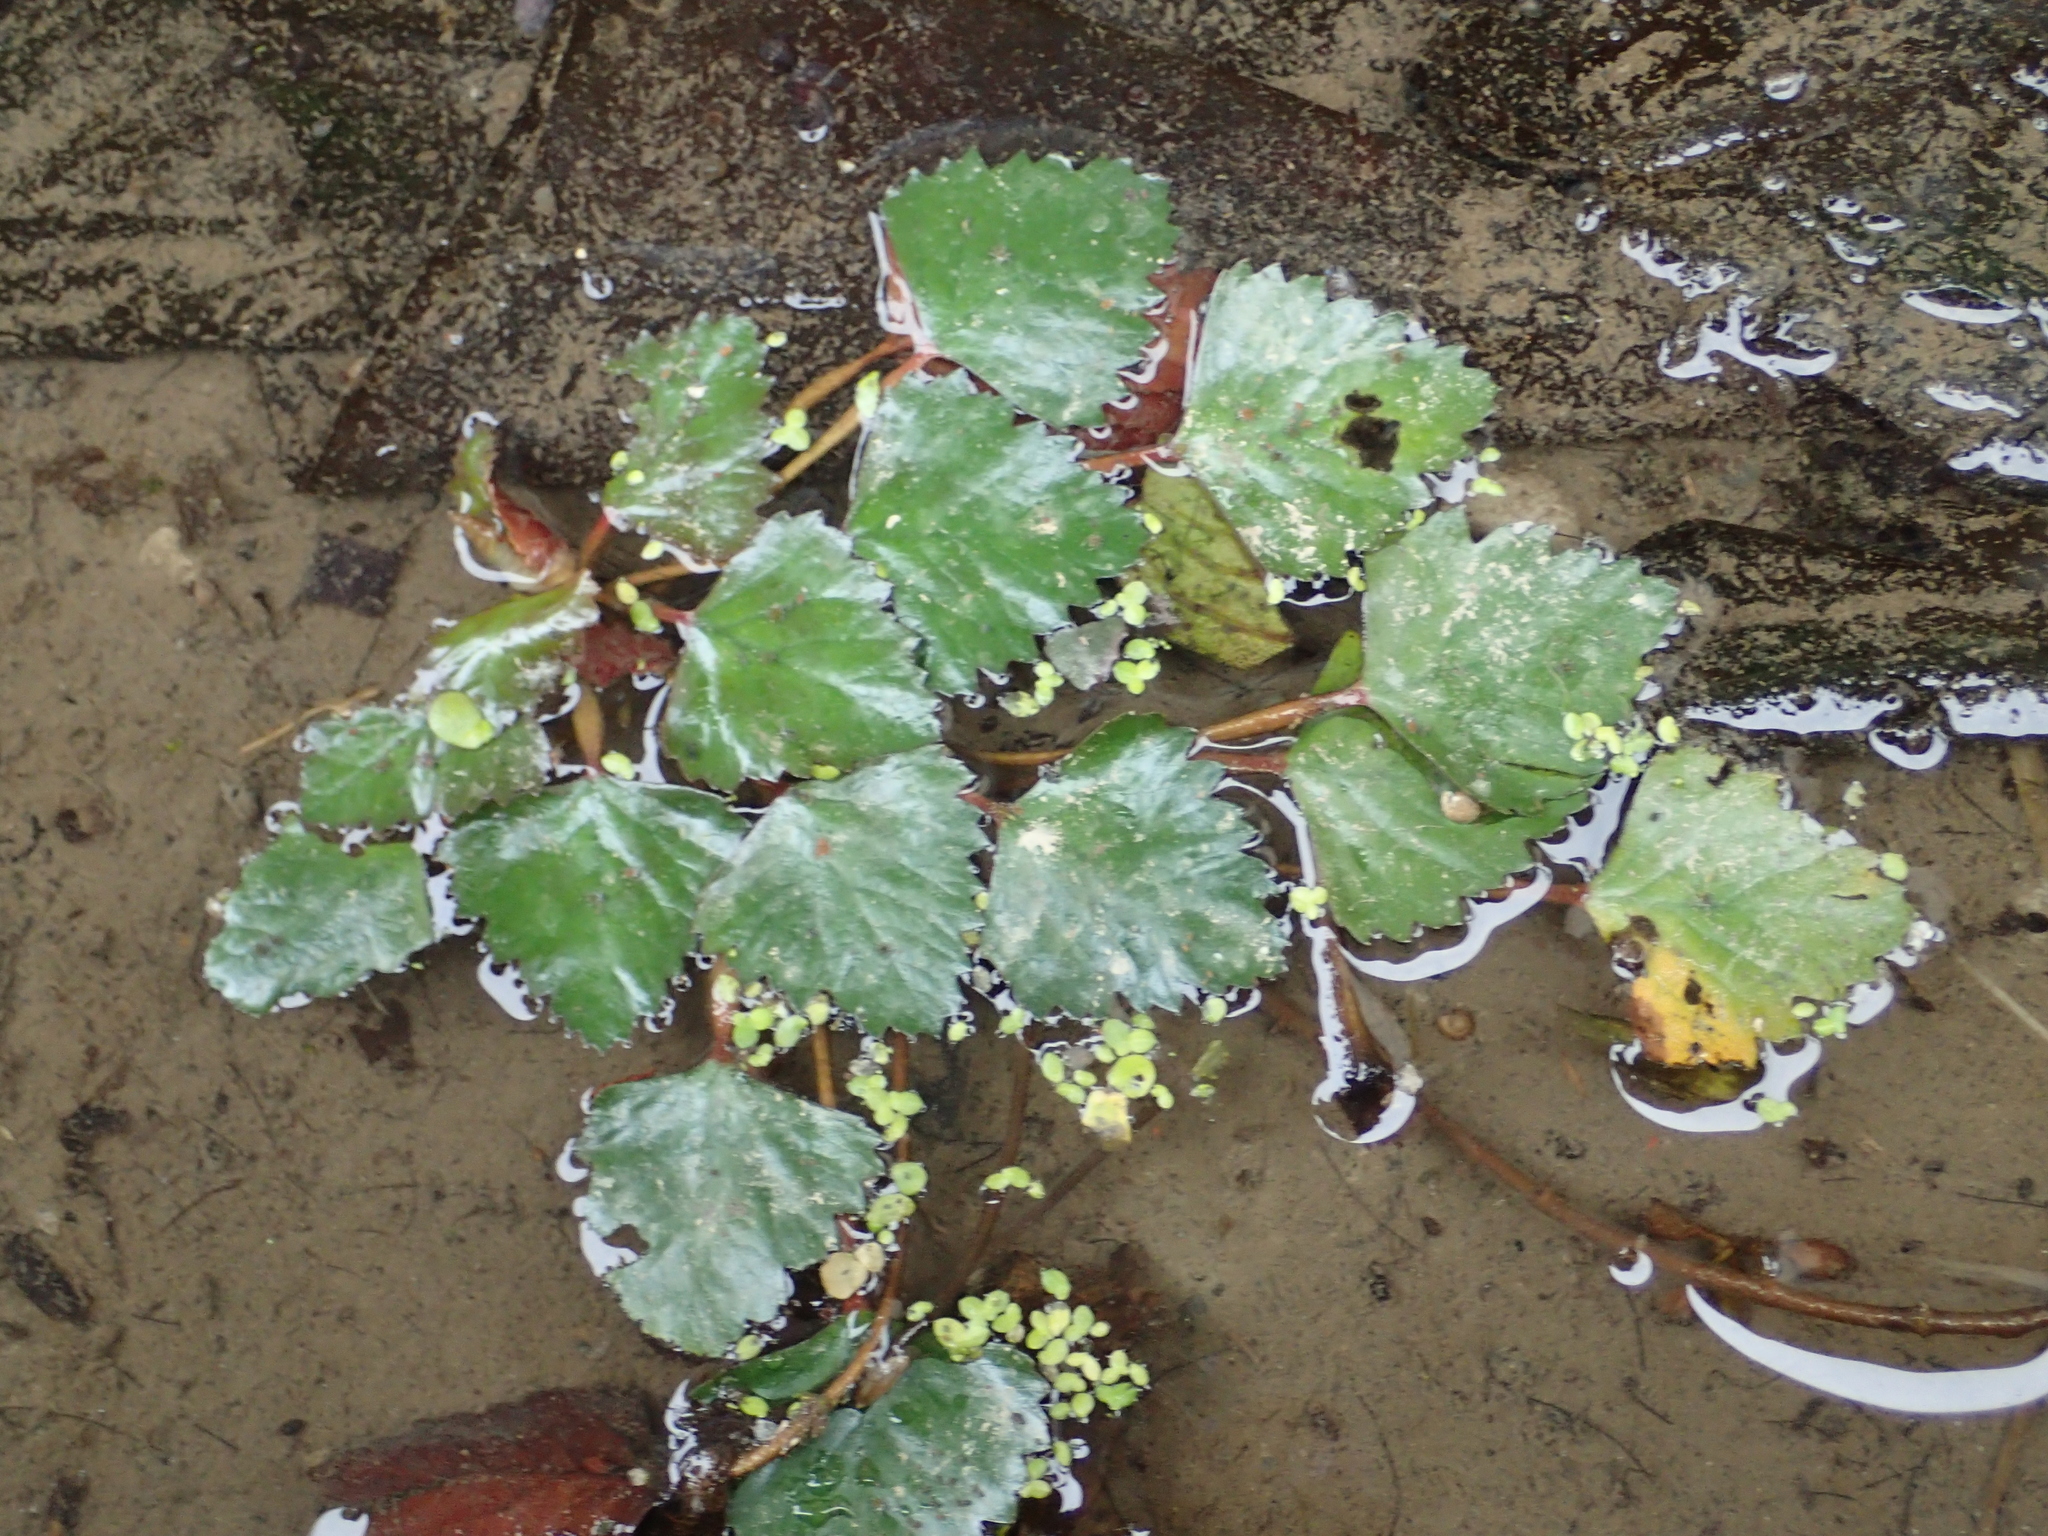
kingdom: Plantae
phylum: Tracheophyta
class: Magnoliopsida
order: Myrtales
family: Lythraceae
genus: Trapa
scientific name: Trapa natans
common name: Water chestnut
